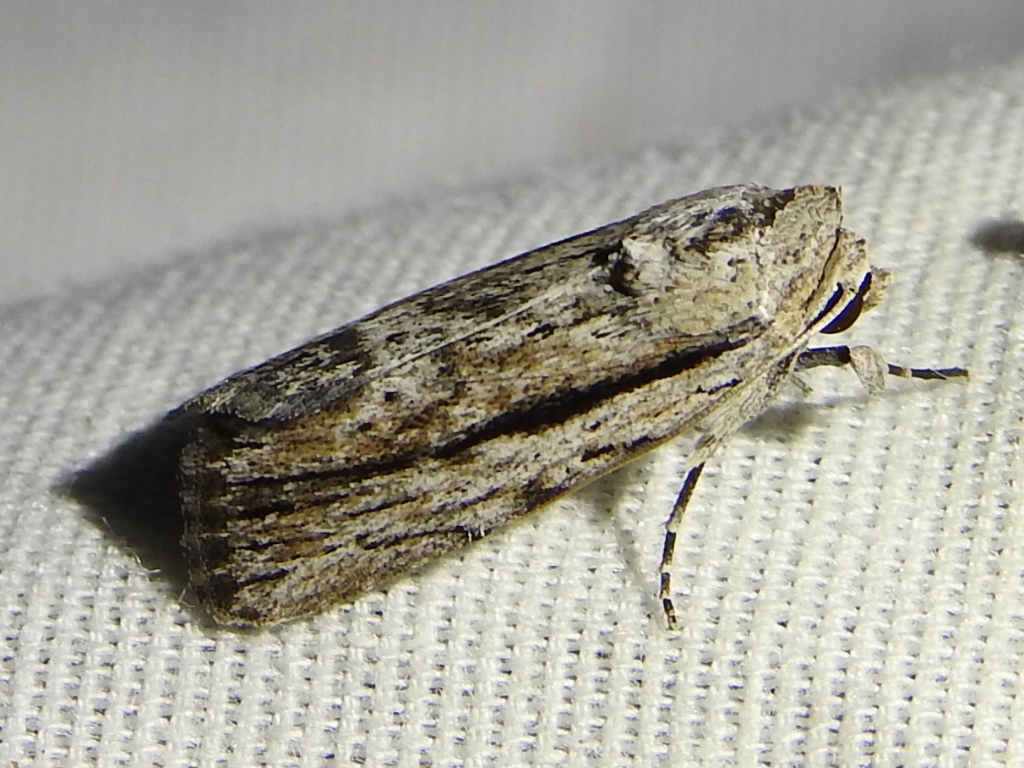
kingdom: Animalia
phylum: Arthropoda
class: Insecta
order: Lepidoptera
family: Noctuidae
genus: Catabenoides
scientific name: Catabenoides terminellus
